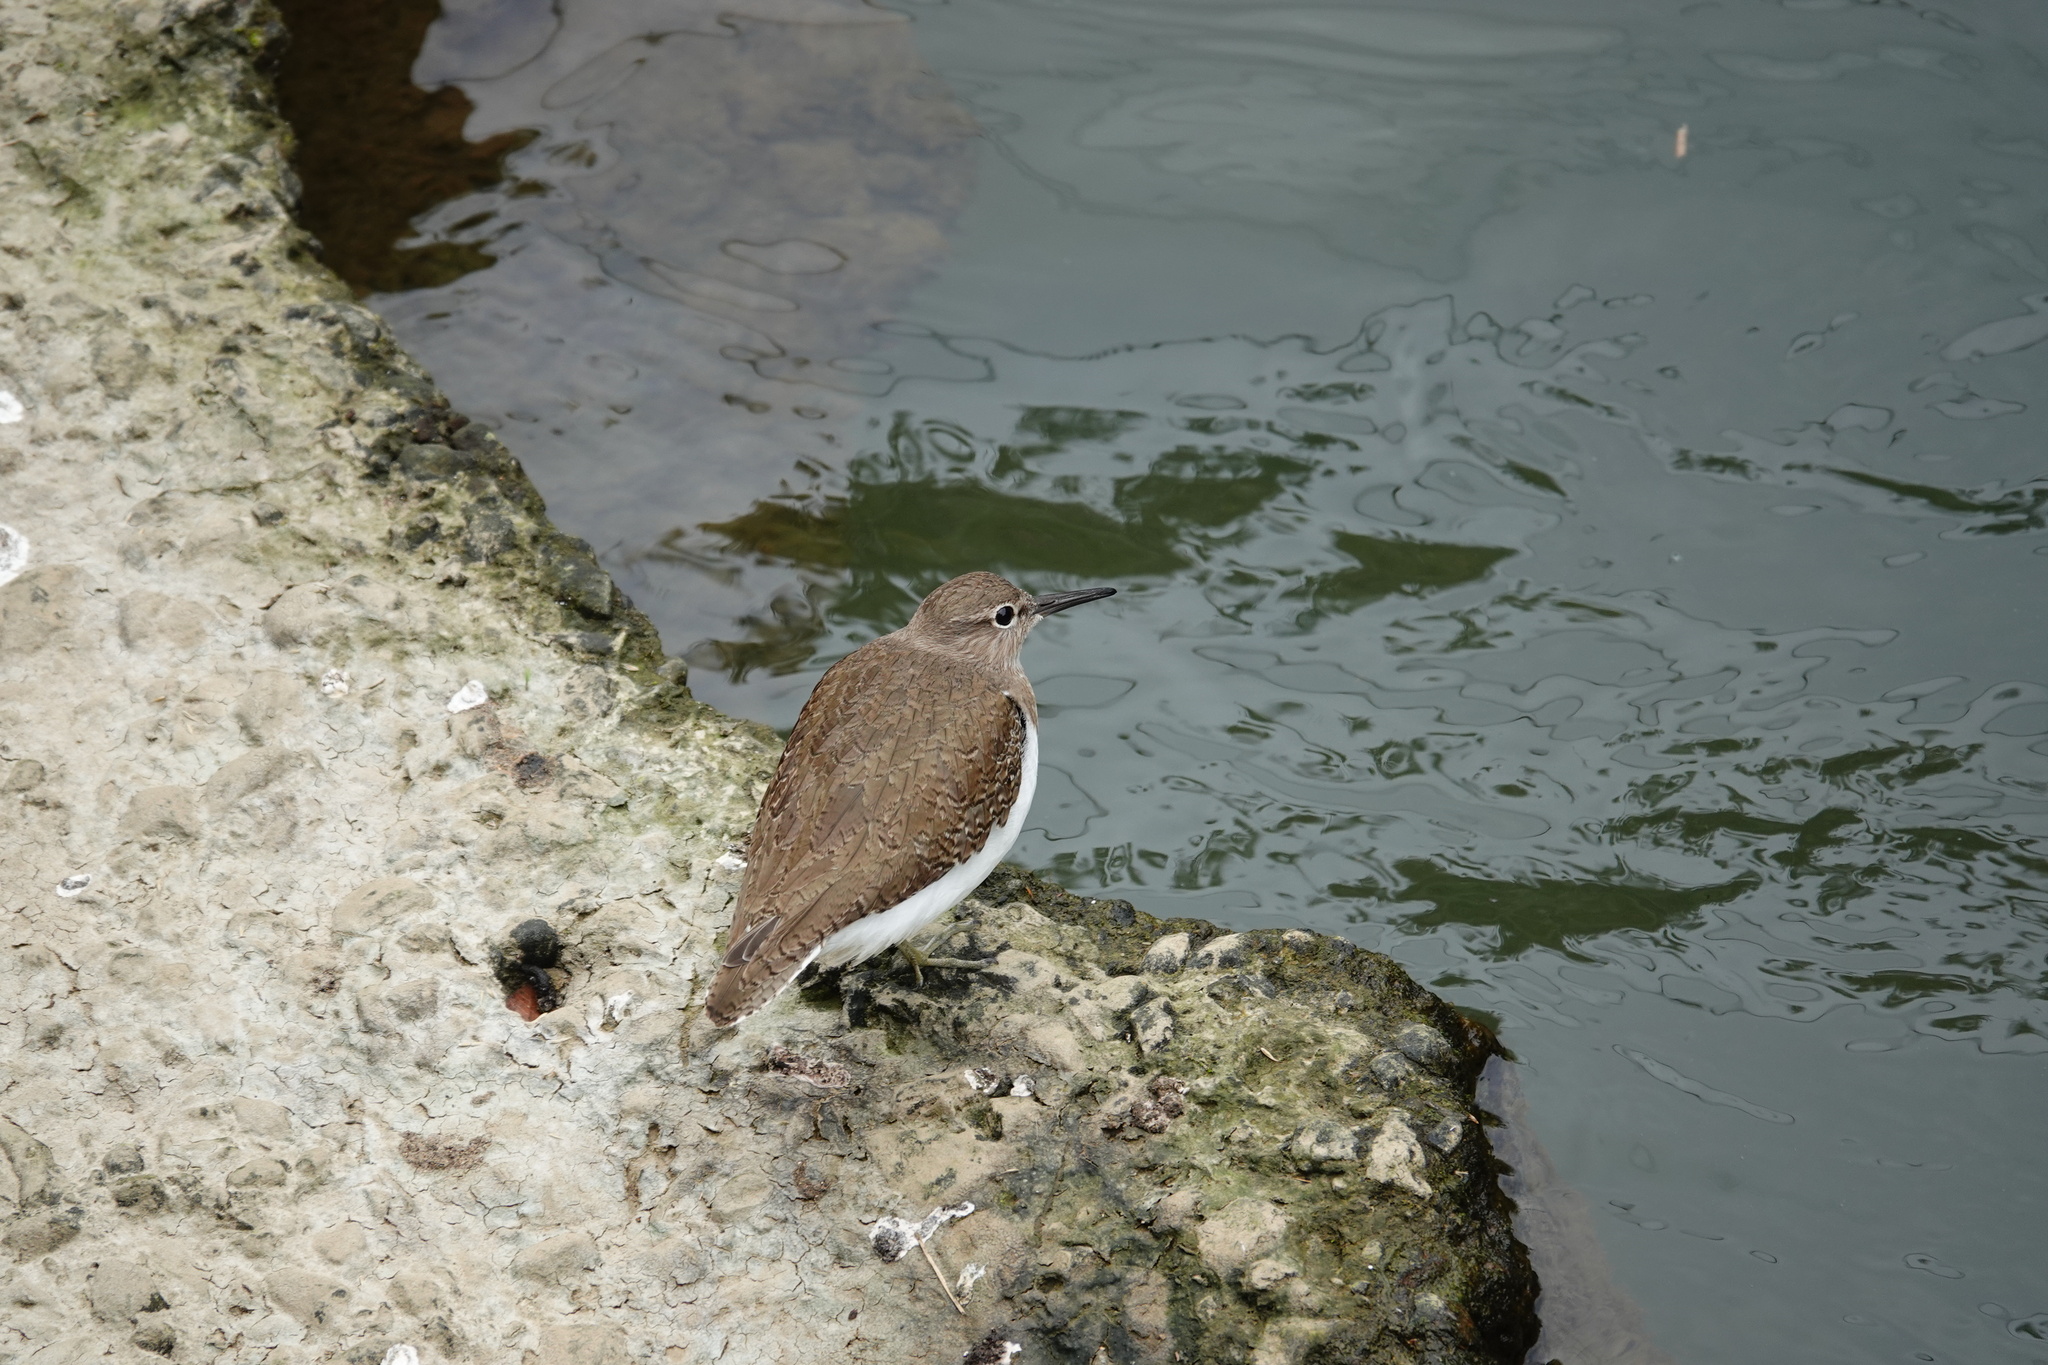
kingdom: Animalia
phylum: Chordata
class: Aves
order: Charadriiformes
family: Scolopacidae
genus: Actitis
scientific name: Actitis hypoleucos
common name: Common sandpiper
